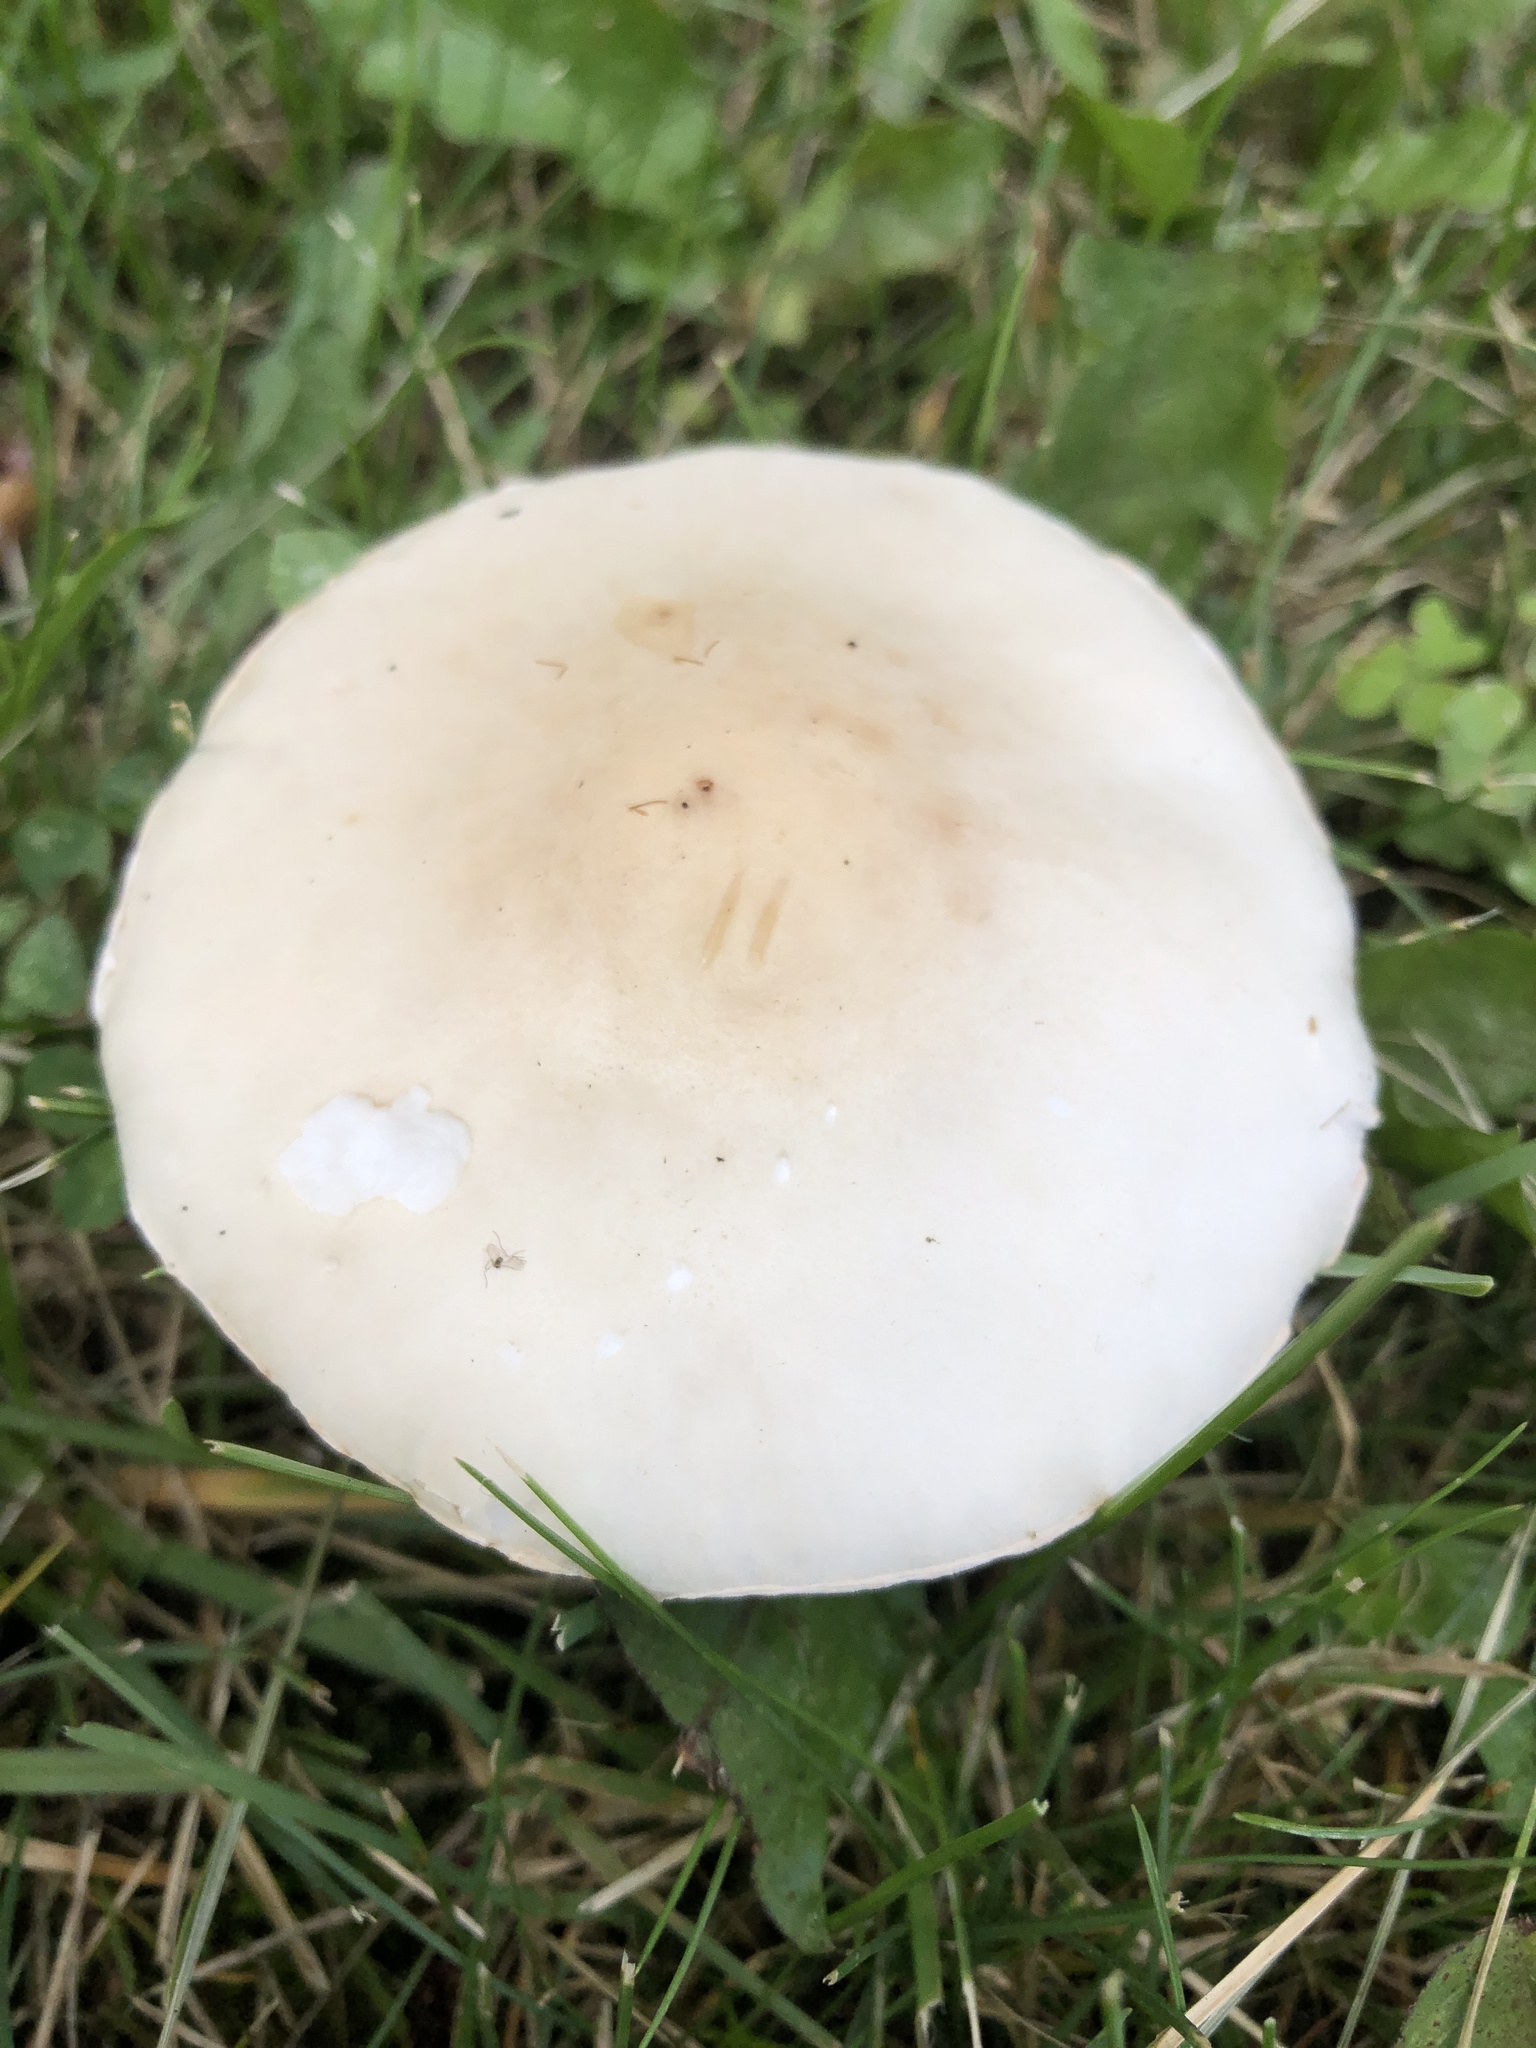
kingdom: Fungi
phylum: Basidiomycota
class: Agaricomycetes
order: Agaricales
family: Agaricaceae
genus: Leucoagaricus
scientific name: Leucoagaricus leucothites
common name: White dapperling
